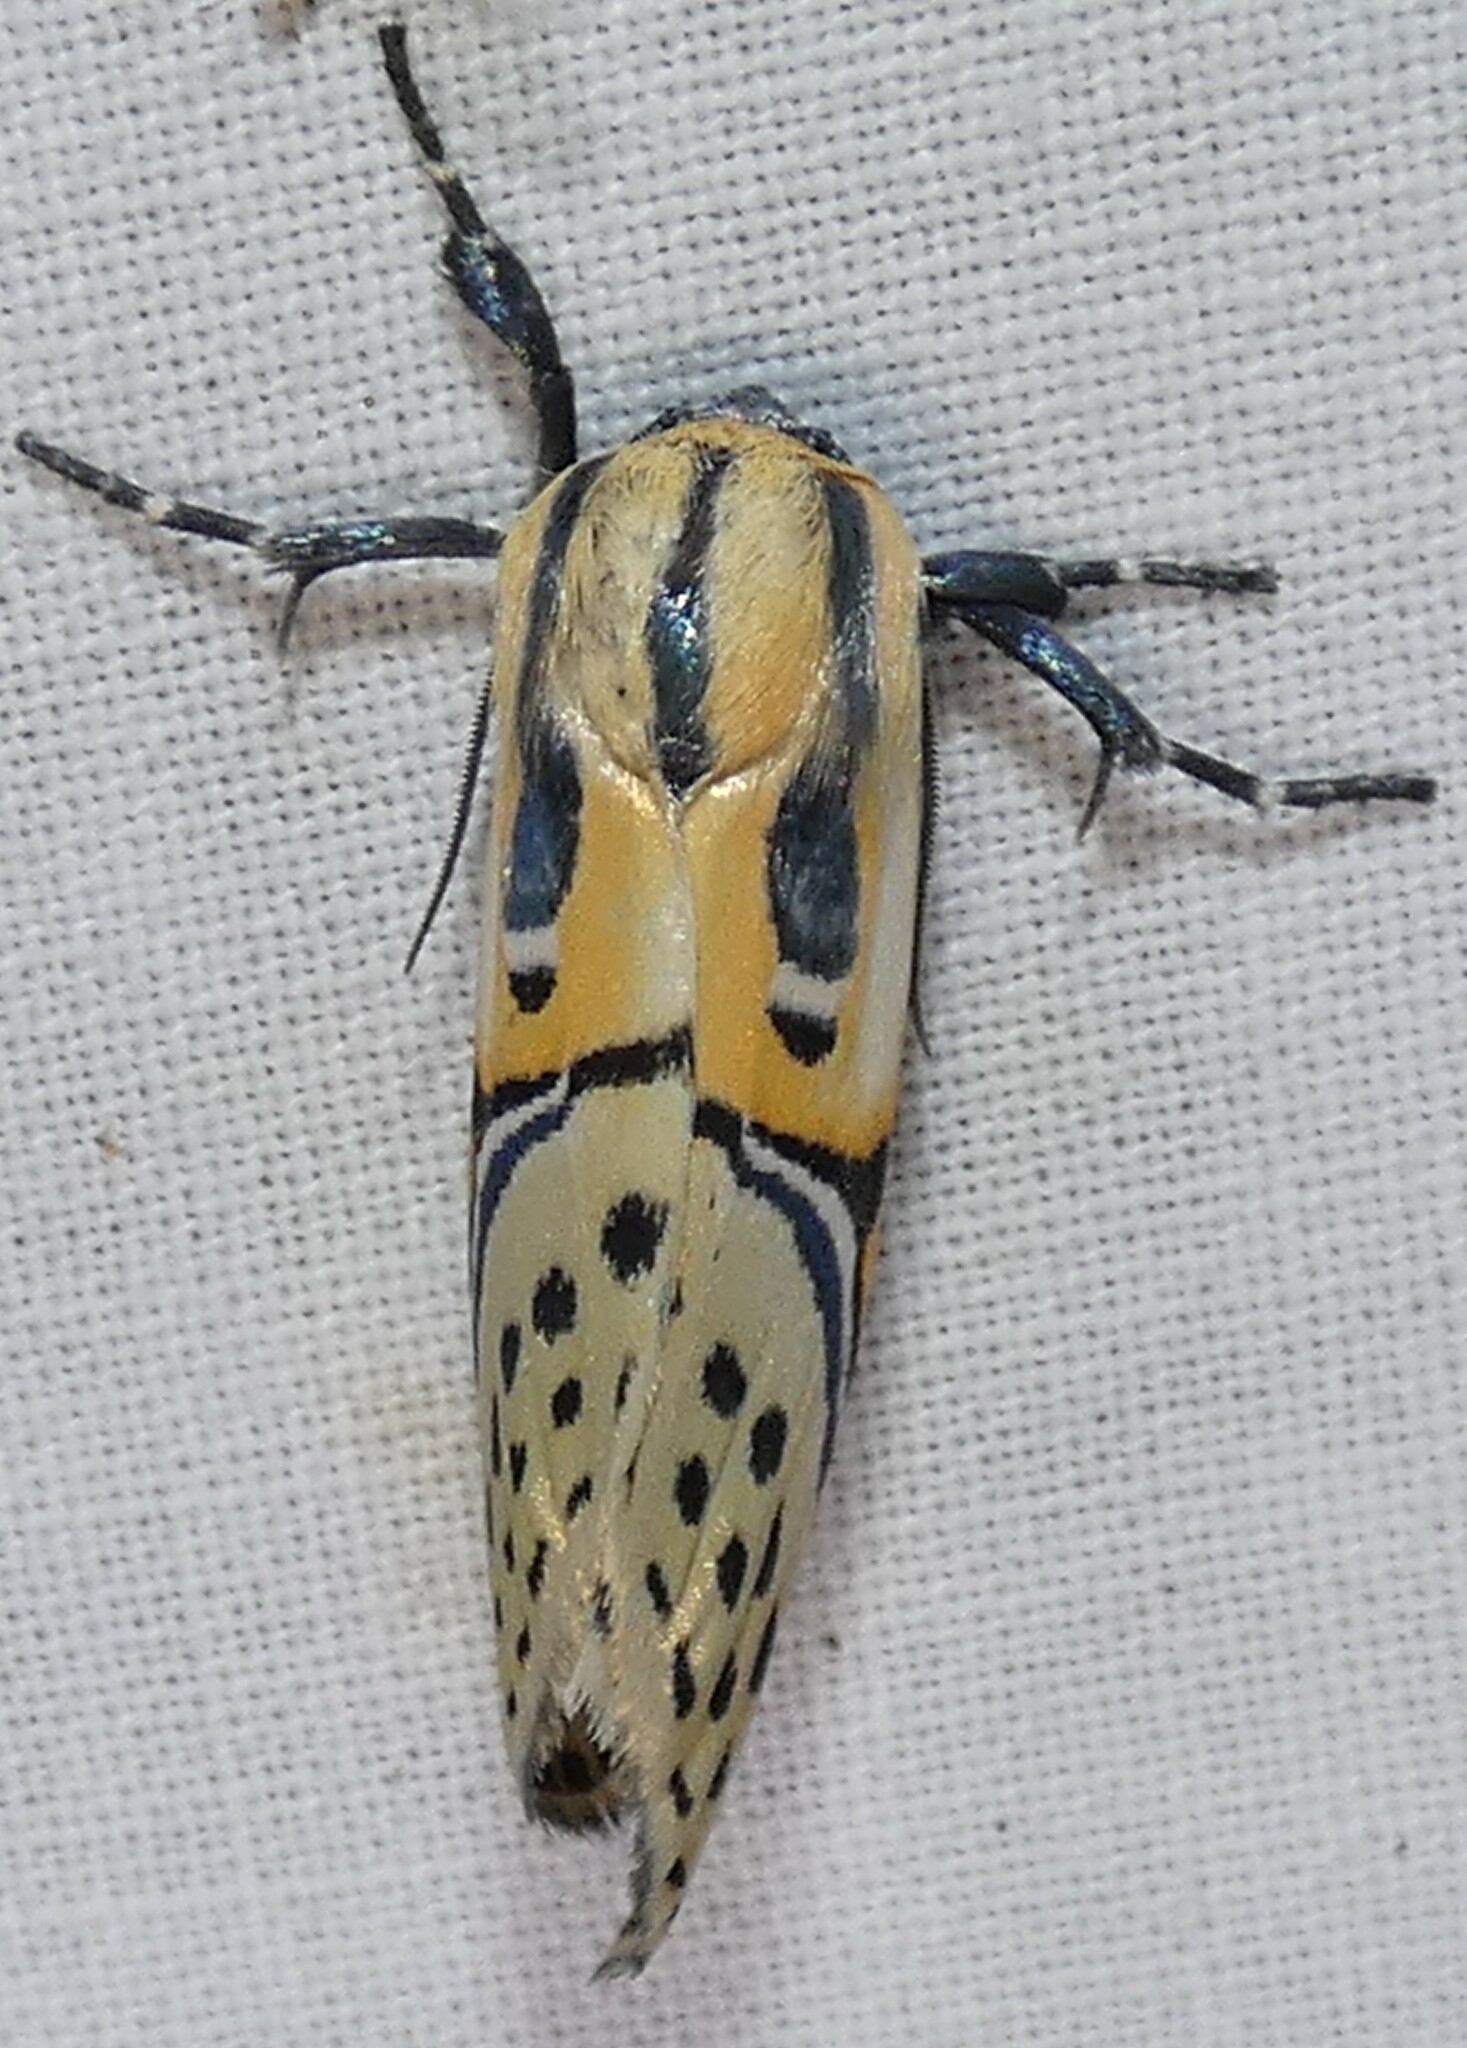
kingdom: Animalia
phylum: Arthropoda
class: Insecta
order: Lepidoptera
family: Erebidae
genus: Diphthera
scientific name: Diphthera festiva
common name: Hieroglyphic moth
